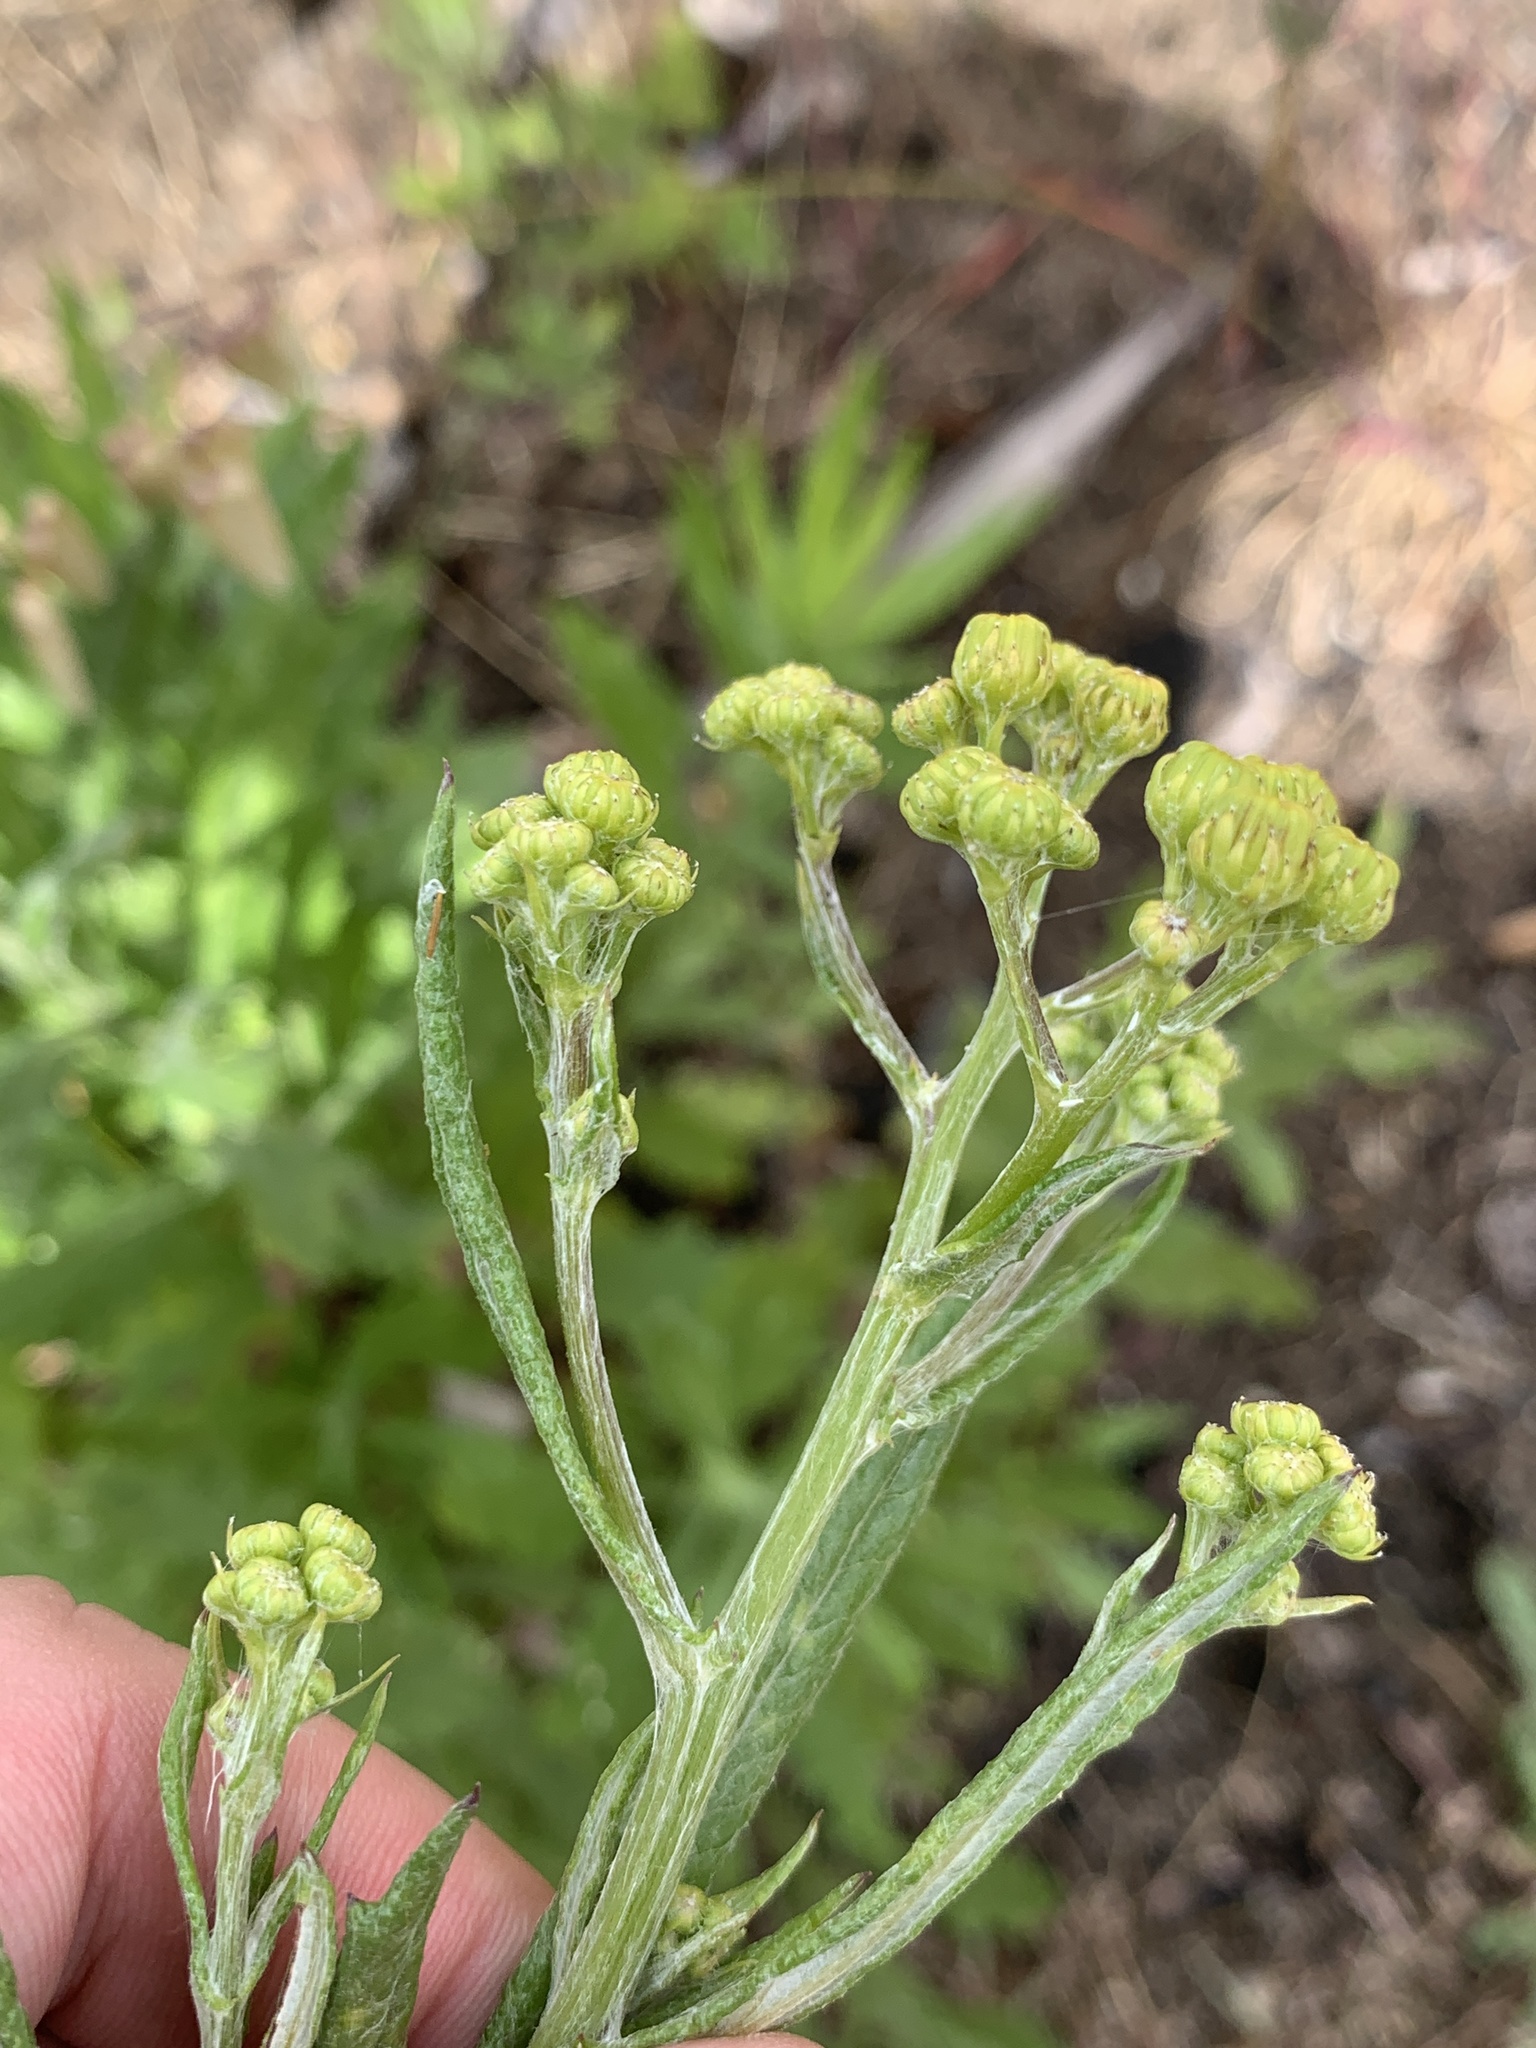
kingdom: Plantae
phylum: Tracheophyta
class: Magnoliopsida
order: Asterales
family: Asteraceae
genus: Senecio
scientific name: Senecio pterophorus
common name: Shoddy ragwort
